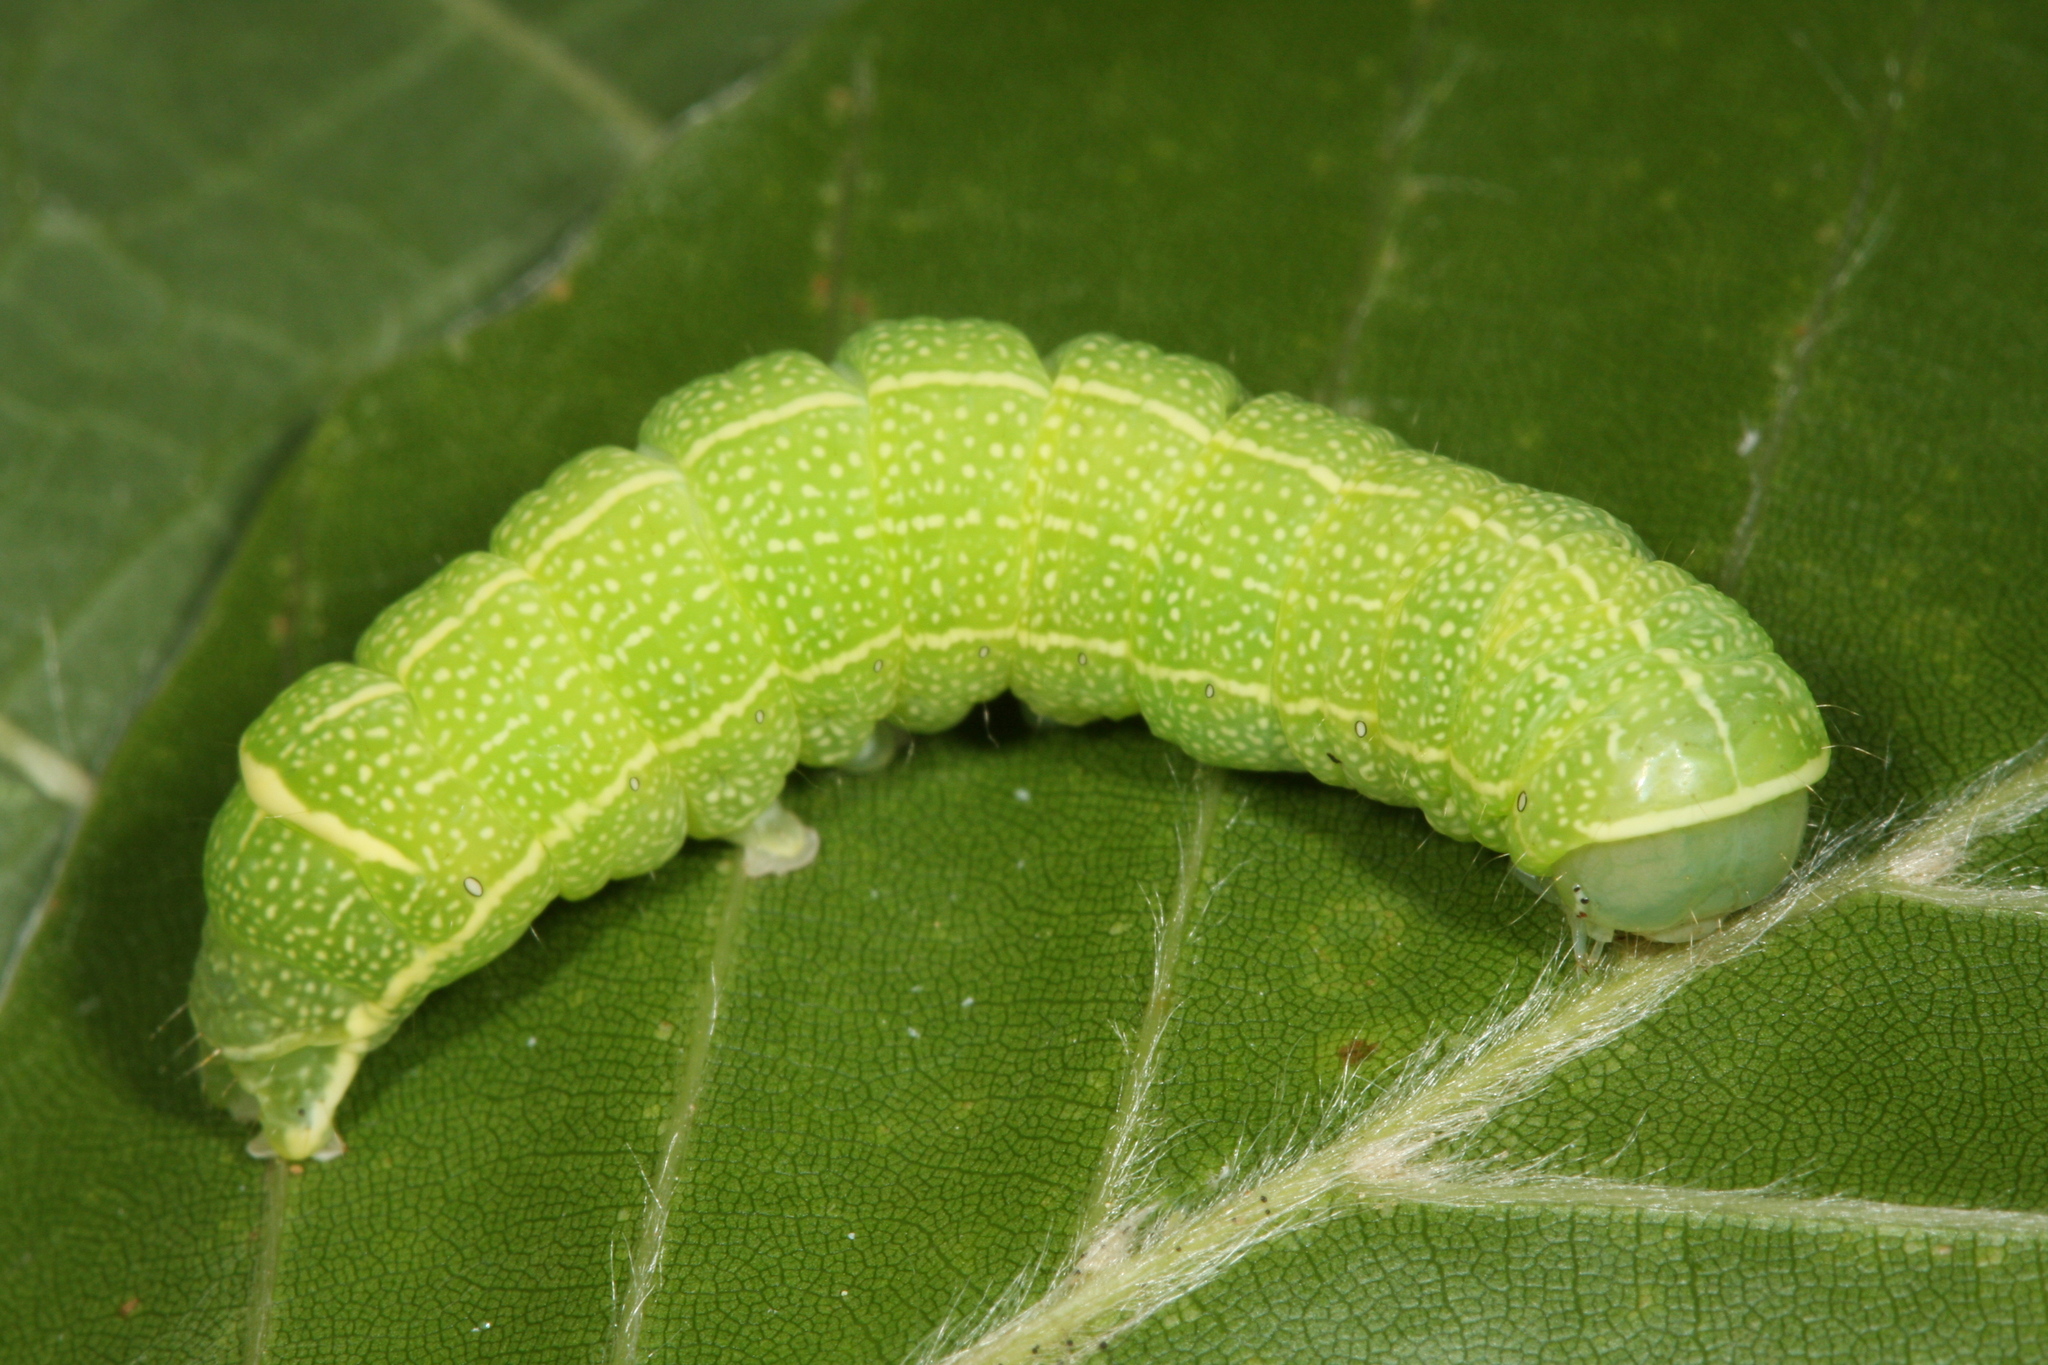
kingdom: Animalia
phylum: Arthropoda
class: Insecta
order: Lepidoptera
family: Noctuidae
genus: Orthosia
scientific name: Orthosia cerasi
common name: Common quaker
